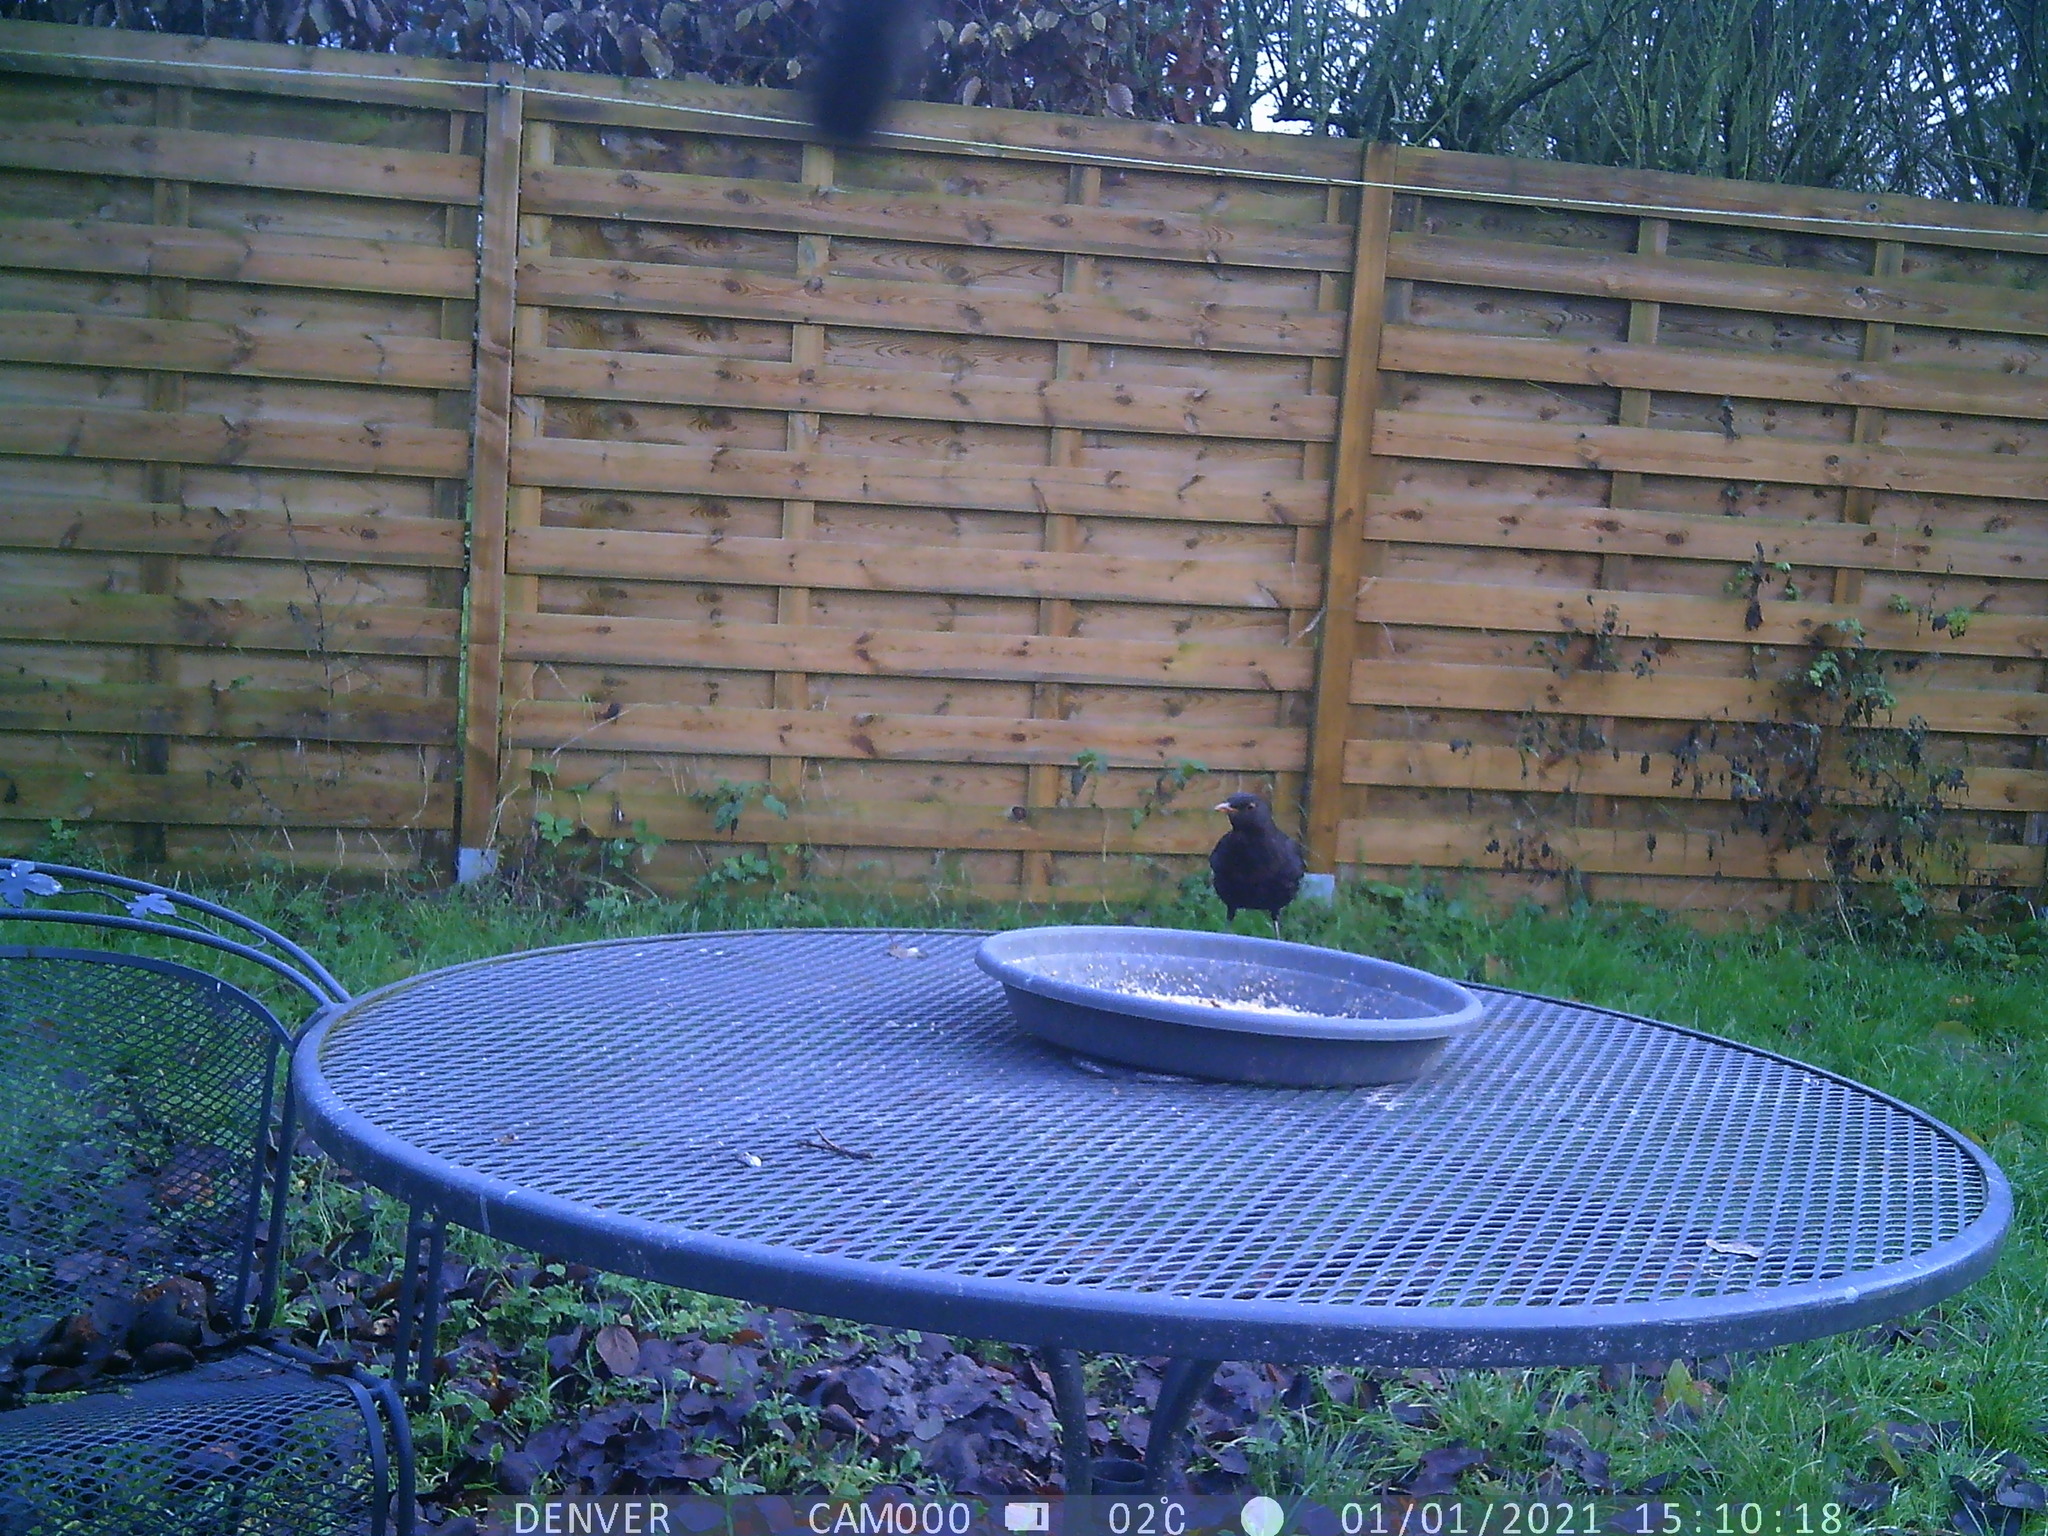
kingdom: Animalia
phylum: Chordata
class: Aves
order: Passeriformes
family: Turdidae
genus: Turdus
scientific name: Turdus merula
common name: Common blackbird
